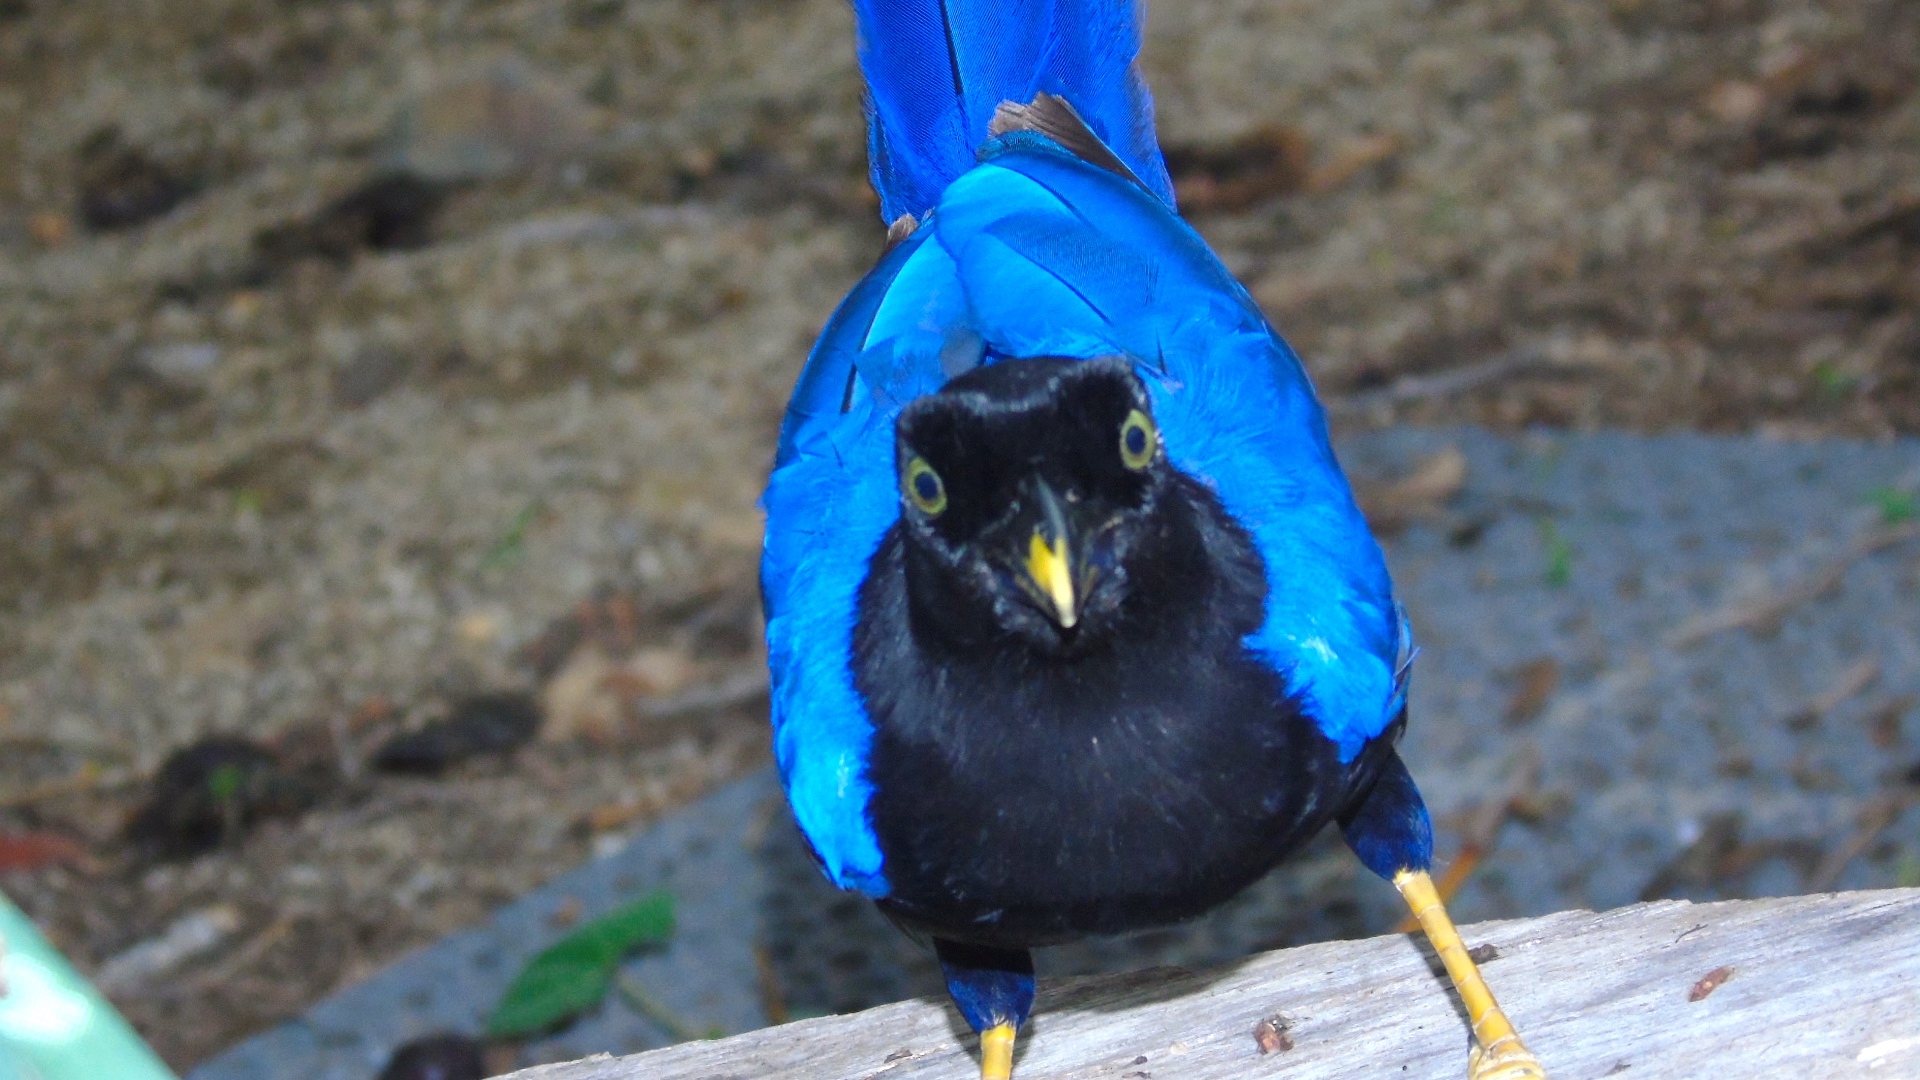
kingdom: Animalia
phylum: Chordata
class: Aves
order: Passeriformes
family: Corvidae
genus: Cyanocorax
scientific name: Cyanocorax beecheii
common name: Purplish-backed jay
